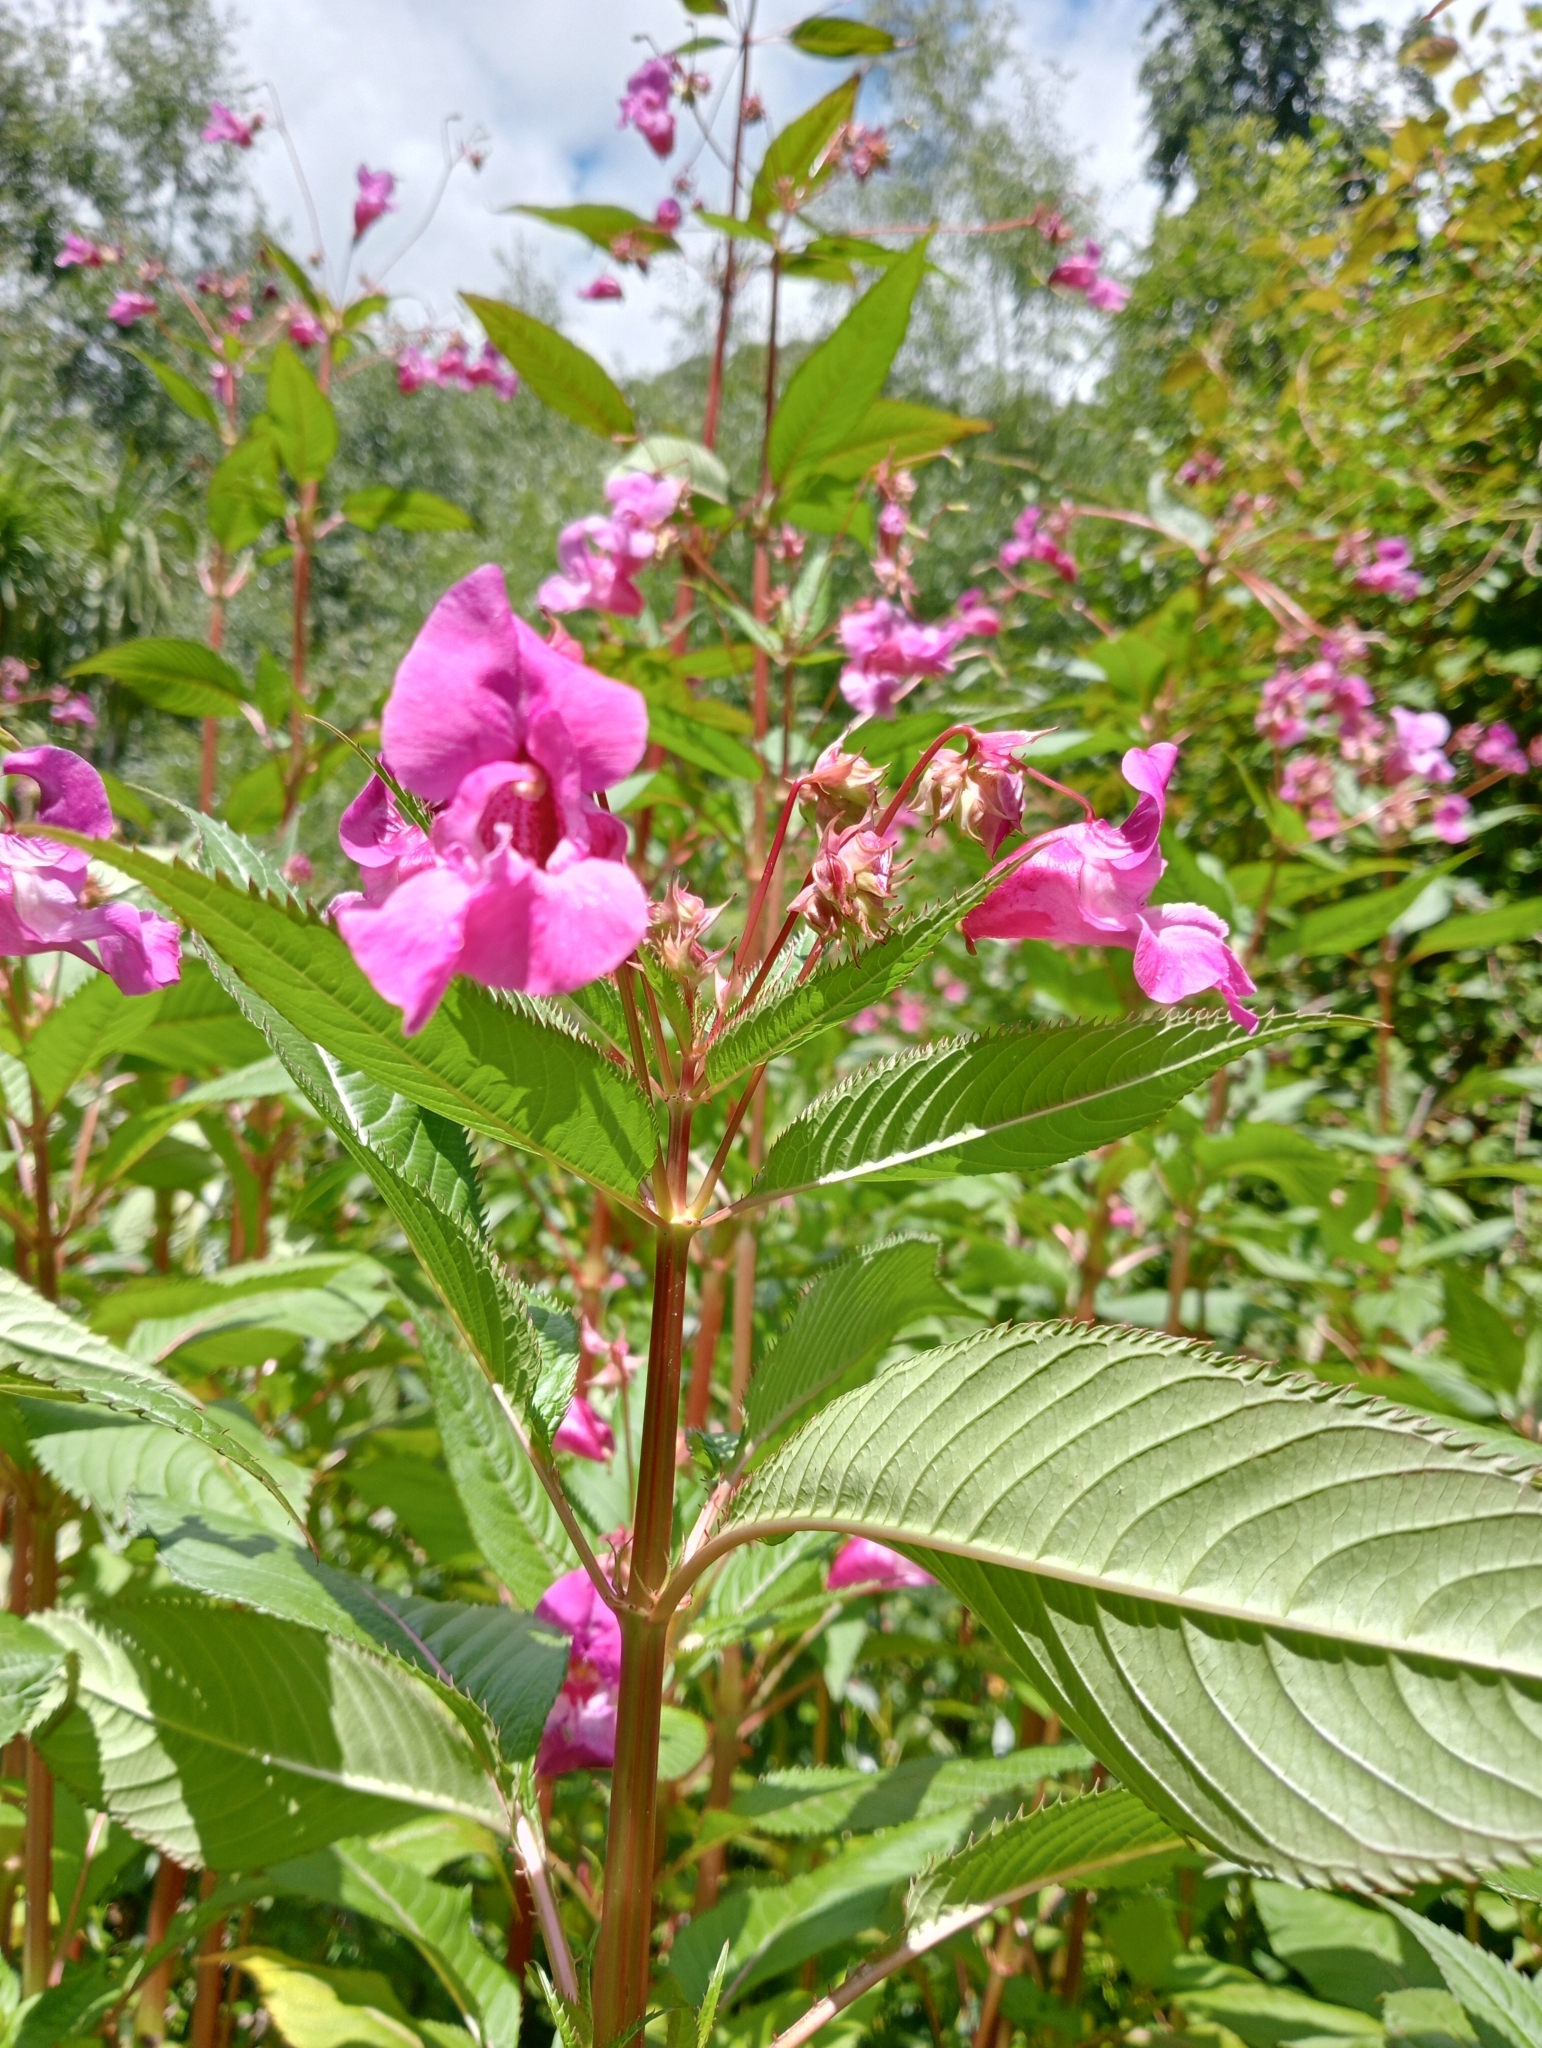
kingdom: Plantae
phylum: Tracheophyta
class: Magnoliopsida
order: Ericales
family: Balsaminaceae
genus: Impatiens
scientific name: Impatiens glandulifera
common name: Himalayan balsam
